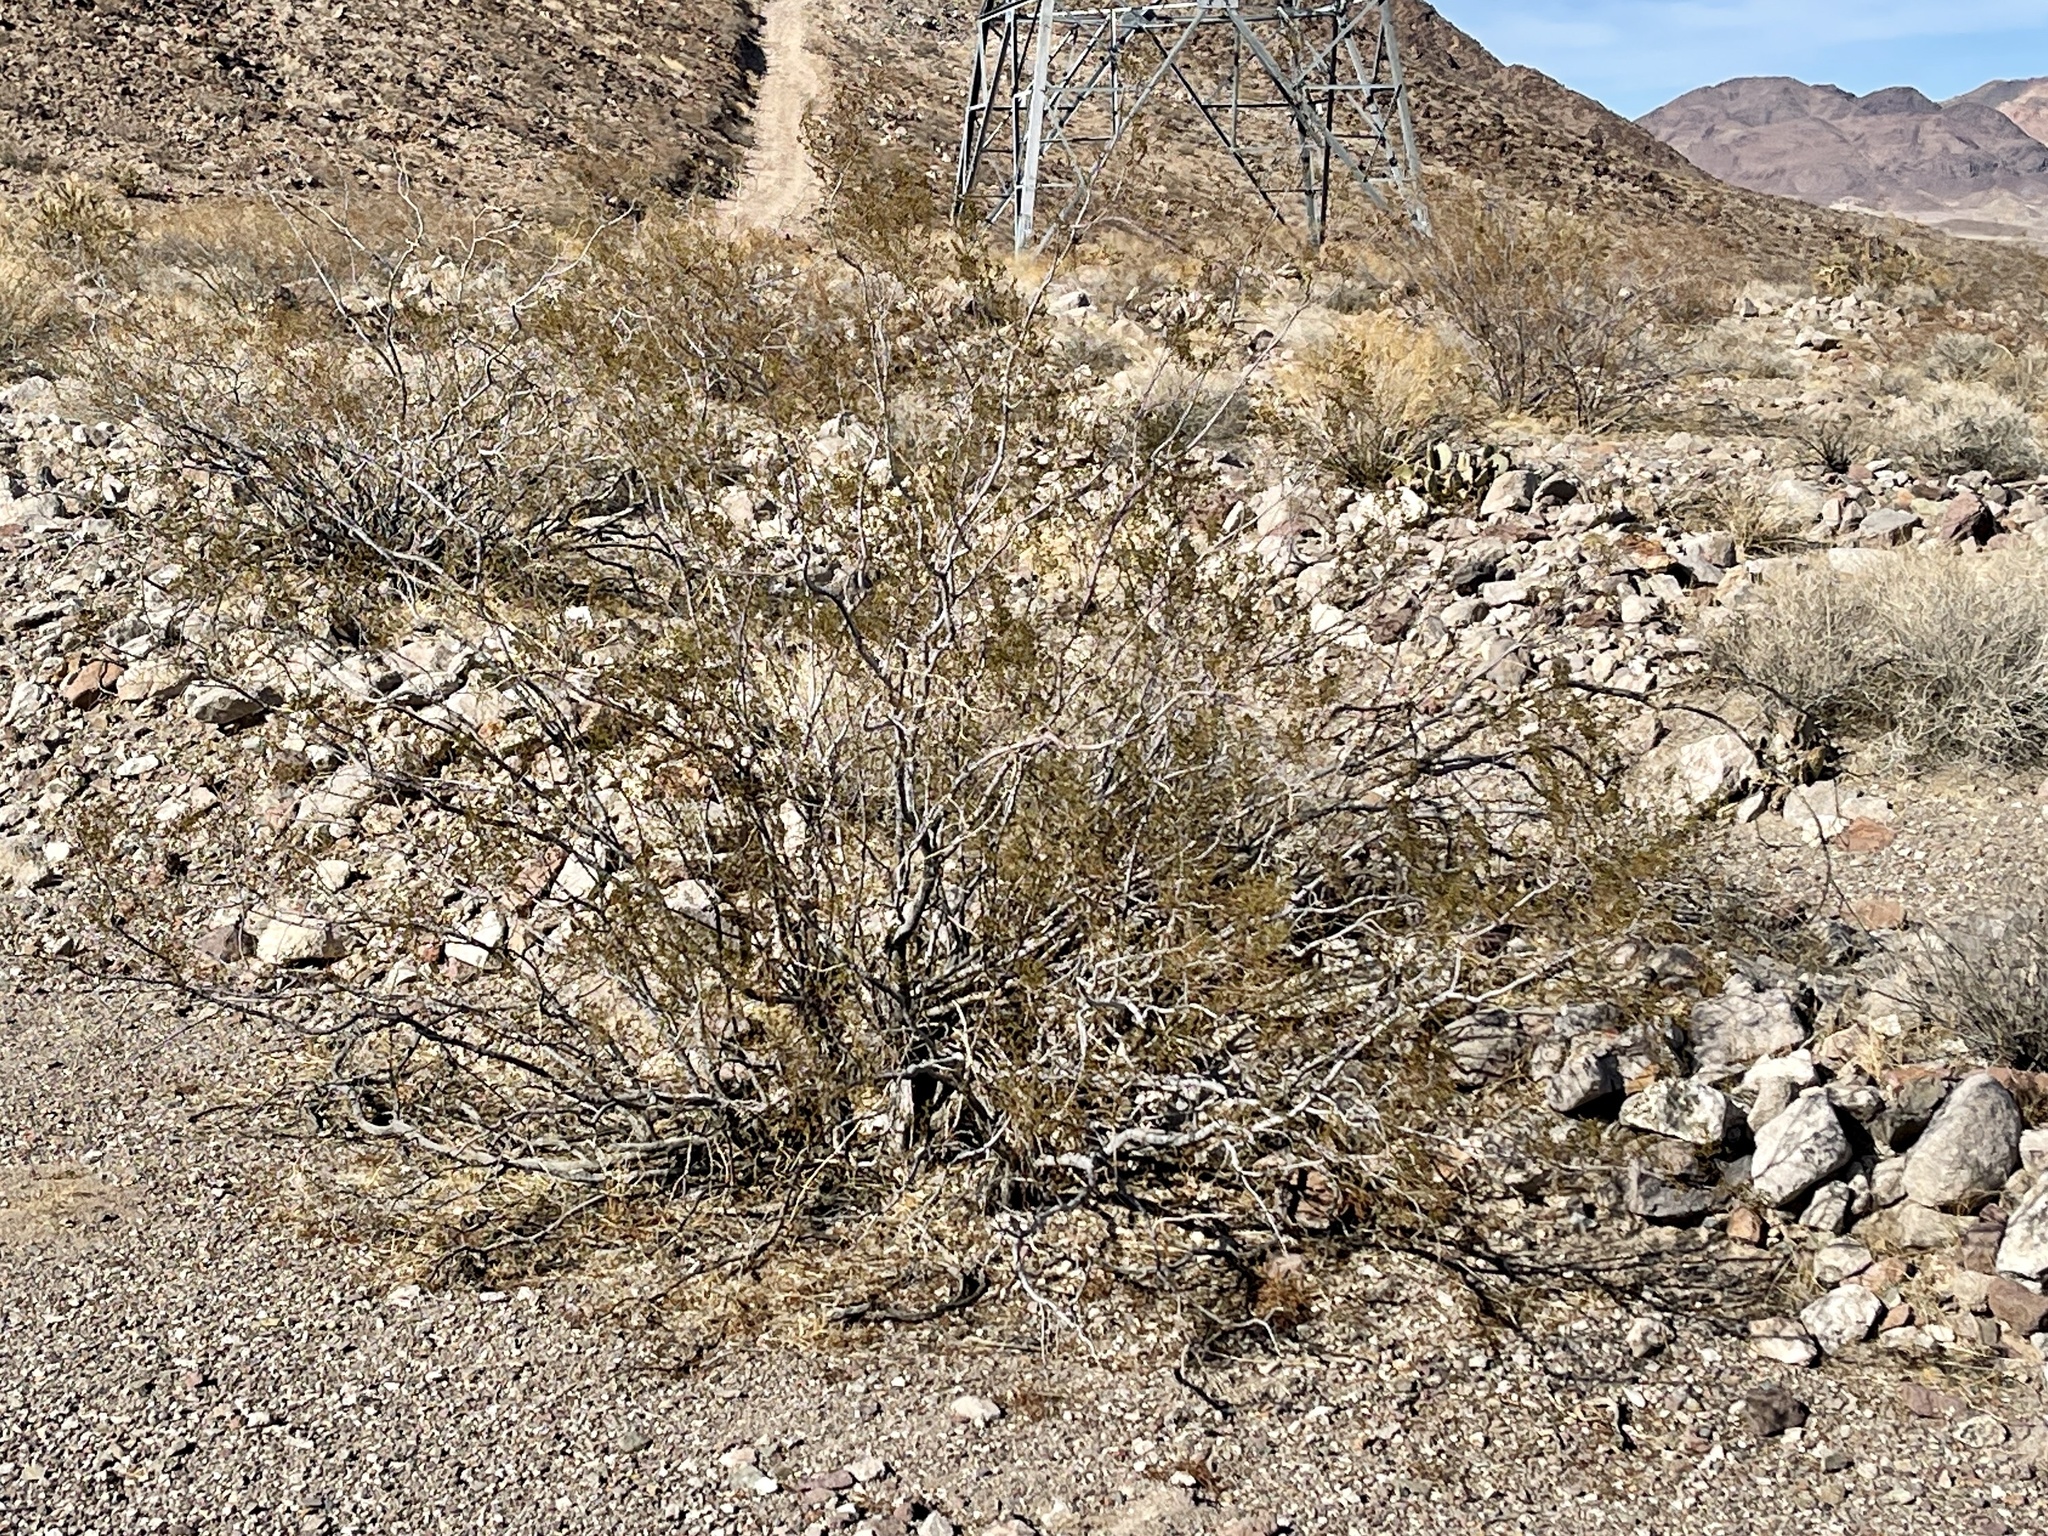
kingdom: Plantae
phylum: Tracheophyta
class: Magnoliopsida
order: Zygophyllales
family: Zygophyllaceae
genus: Larrea
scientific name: Larrea tridentata
